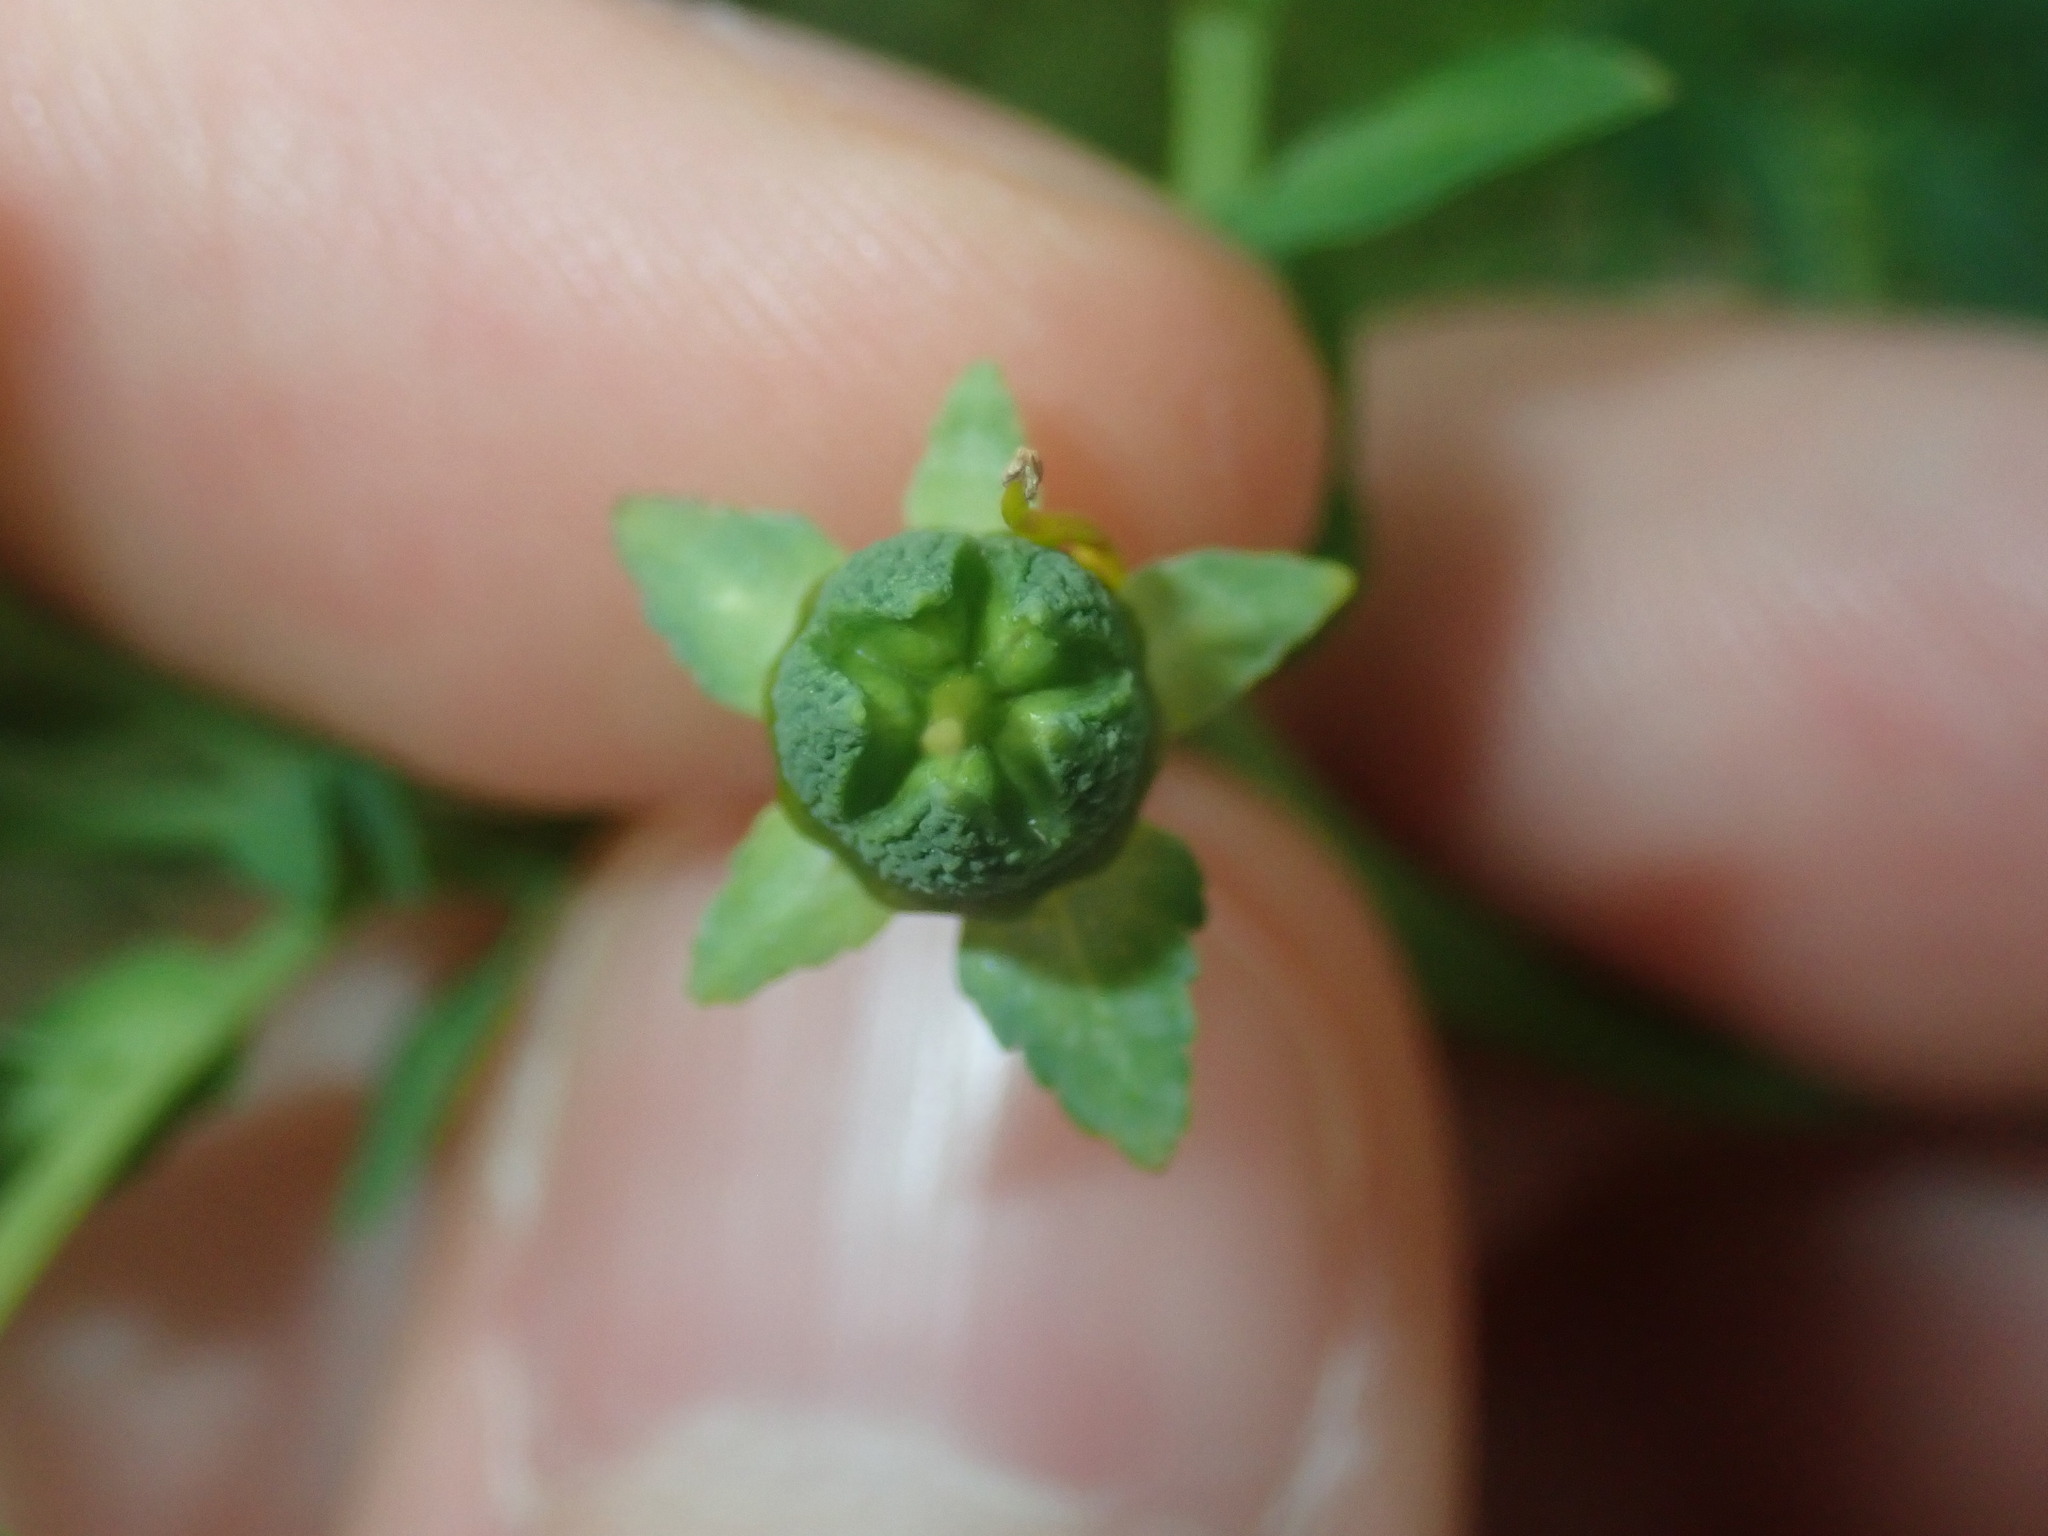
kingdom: Plantae
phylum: Tracheophyta
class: Magnoliopsida
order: Sapindales
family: Rutaceae
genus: Ruta
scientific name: Ruta chalepensis
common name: Fringed rue
